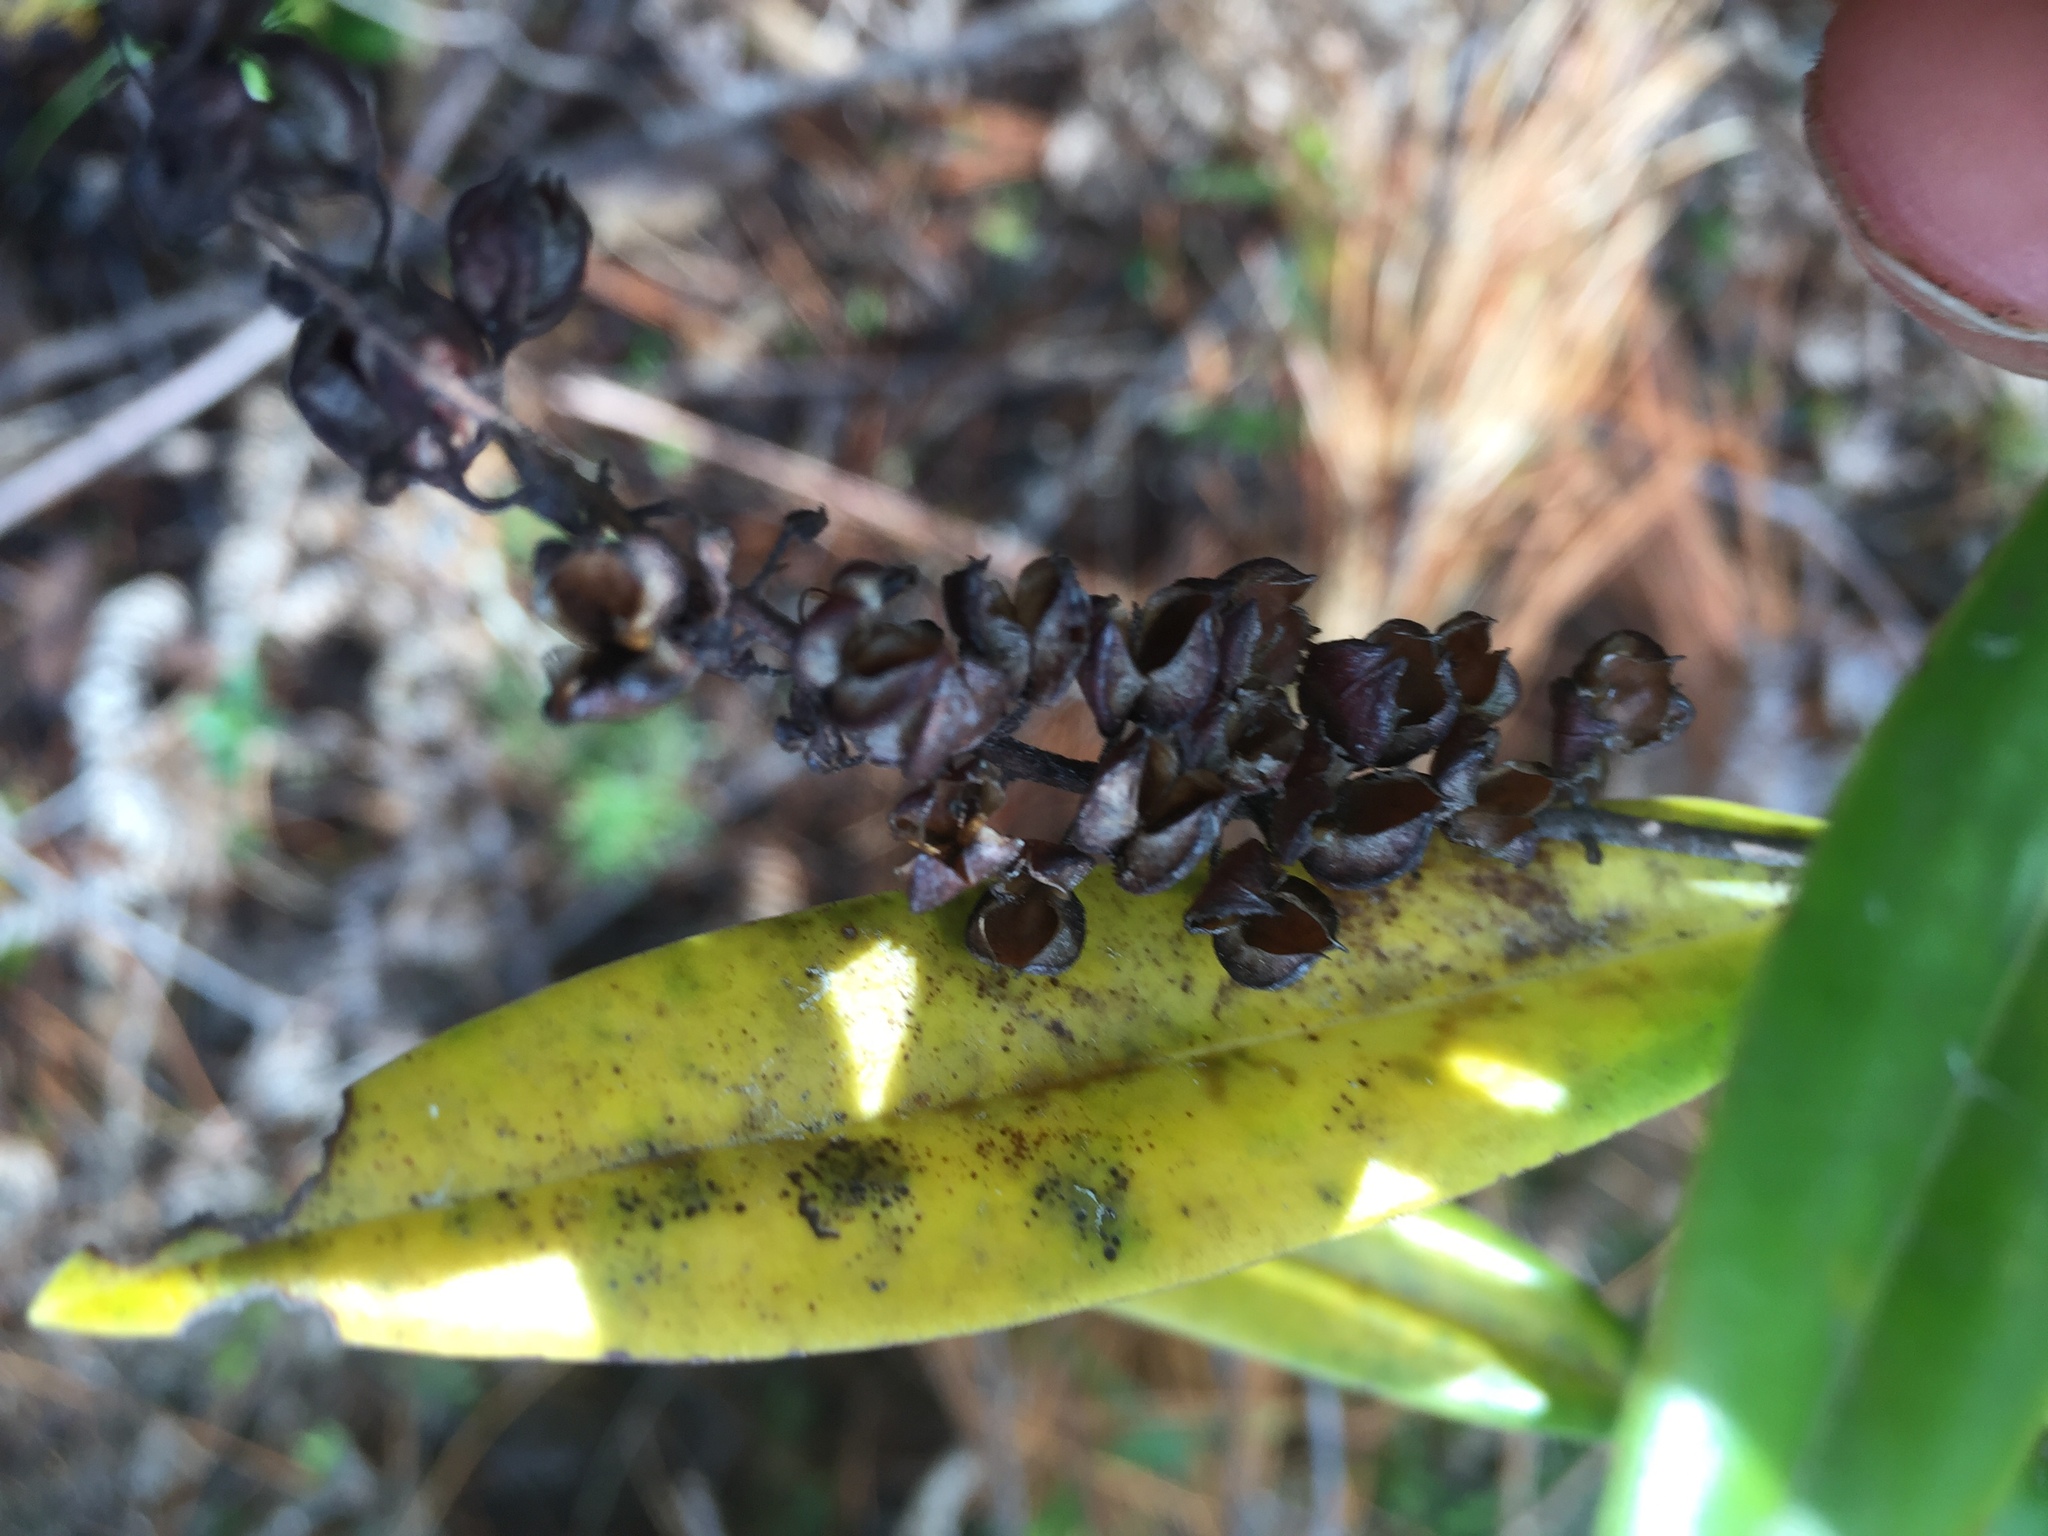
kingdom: Plantae
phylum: Tracheophyta
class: Magnoliopsida
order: Lamiales
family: Plantaginaceae
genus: Veronica
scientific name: Veronica macrocarpa
